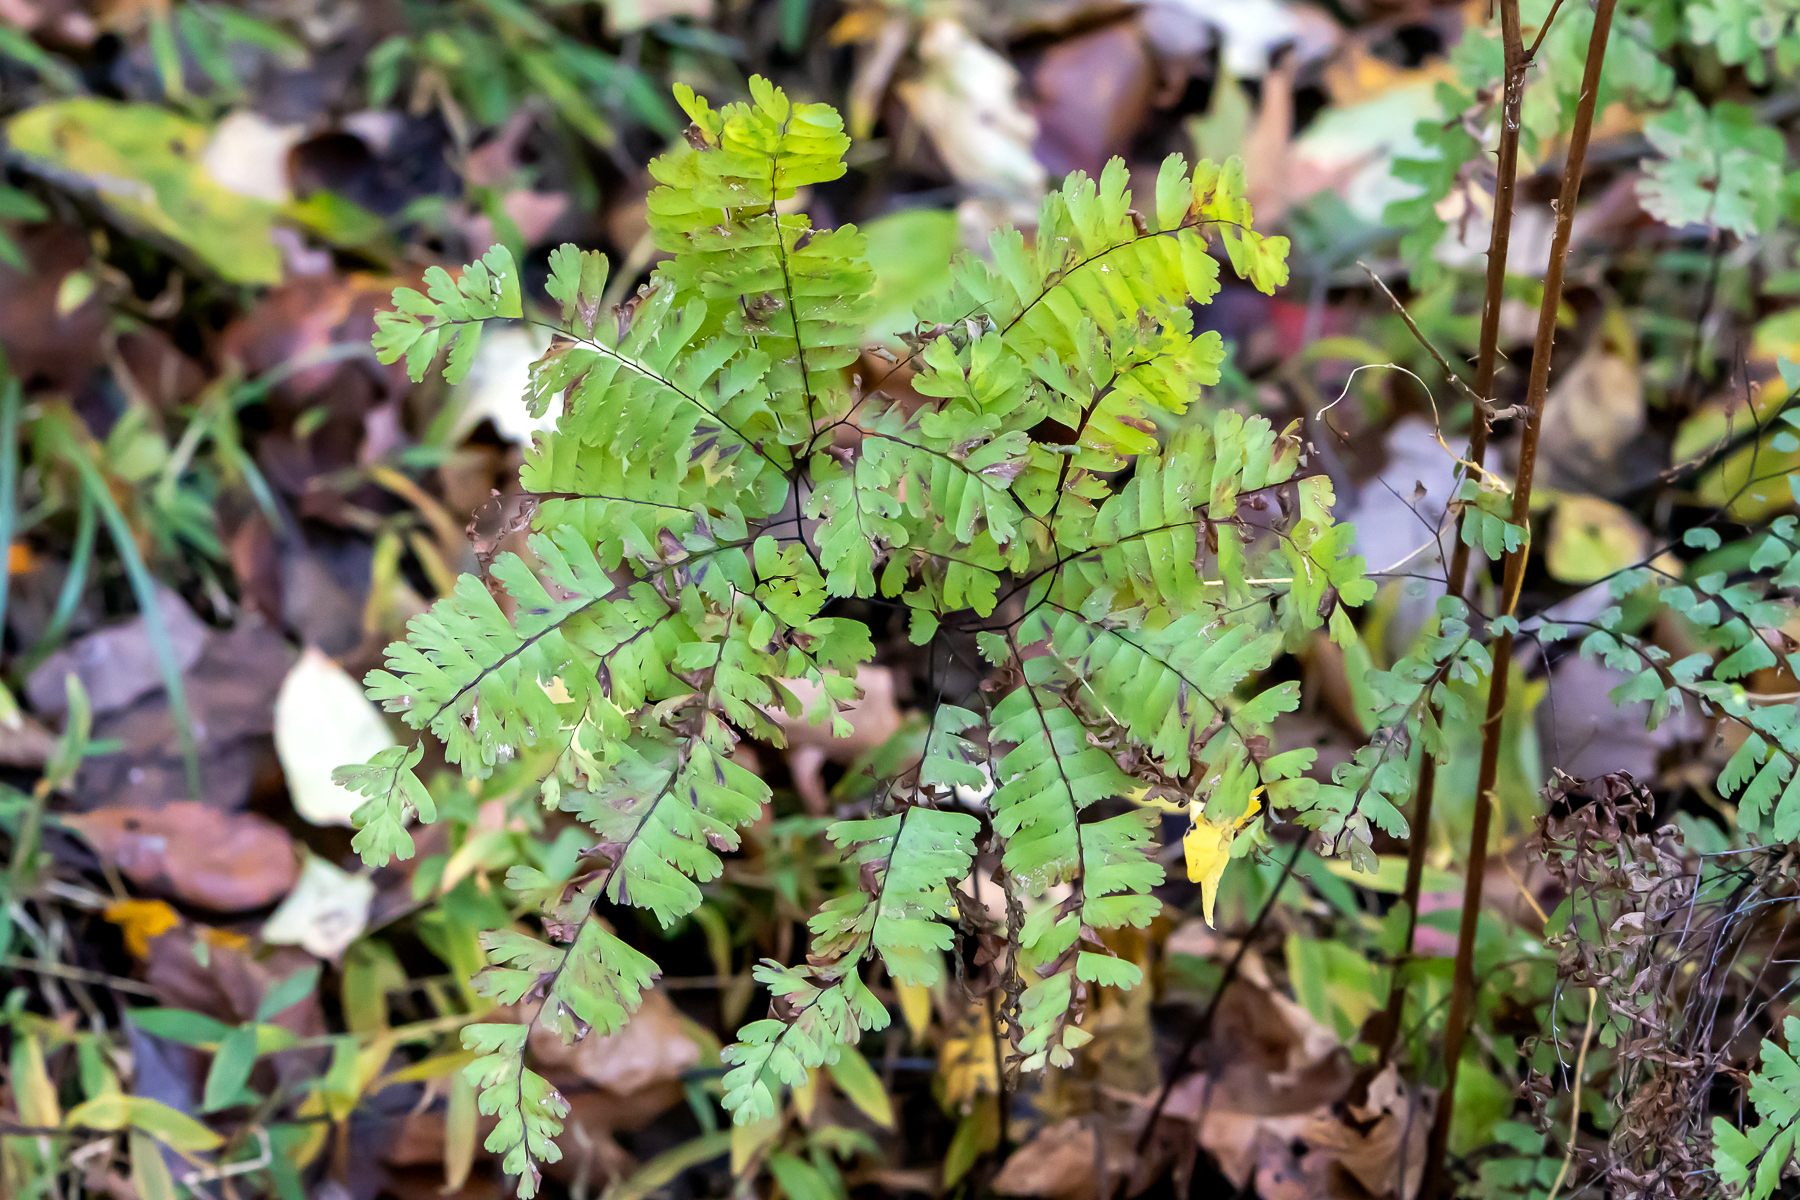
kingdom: Plantae
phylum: Tracheophyta
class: Polypodiopsida
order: Polypodiales
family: Pteridaceae
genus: Adiantum
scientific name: Adiantum pedatum
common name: Five-finger fern
